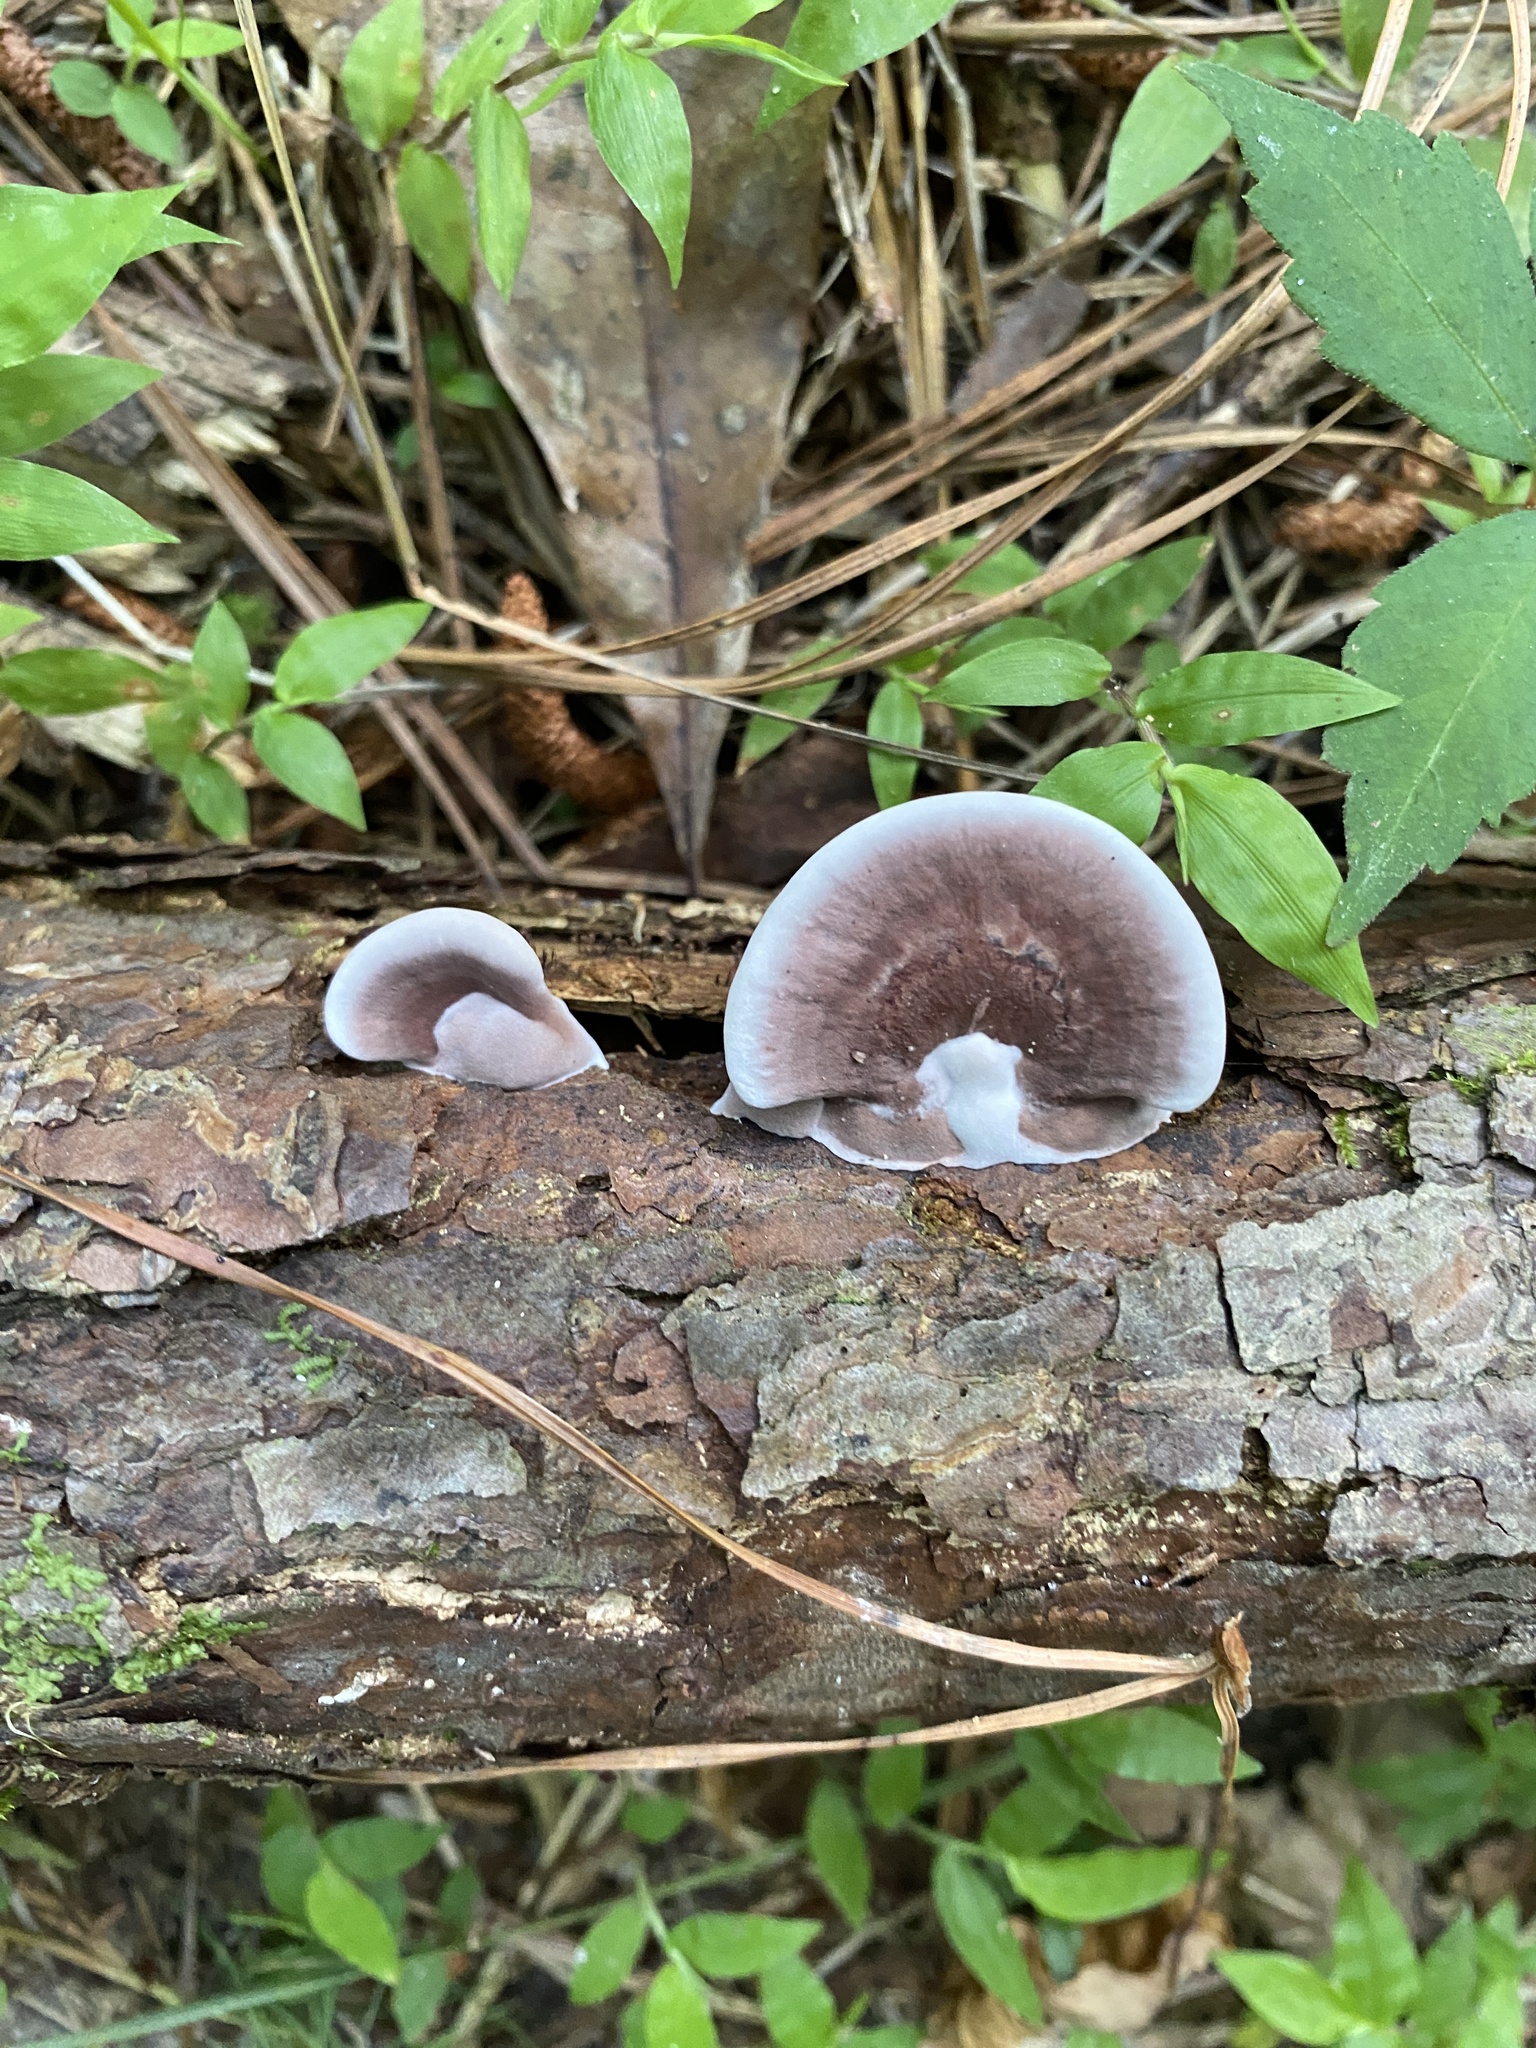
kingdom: Fungi
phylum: Basidiomycota
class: Agaricomycetes
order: Polyporales
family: Steccherinaceae
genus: Nigroporus
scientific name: Nigroporus vinosus
